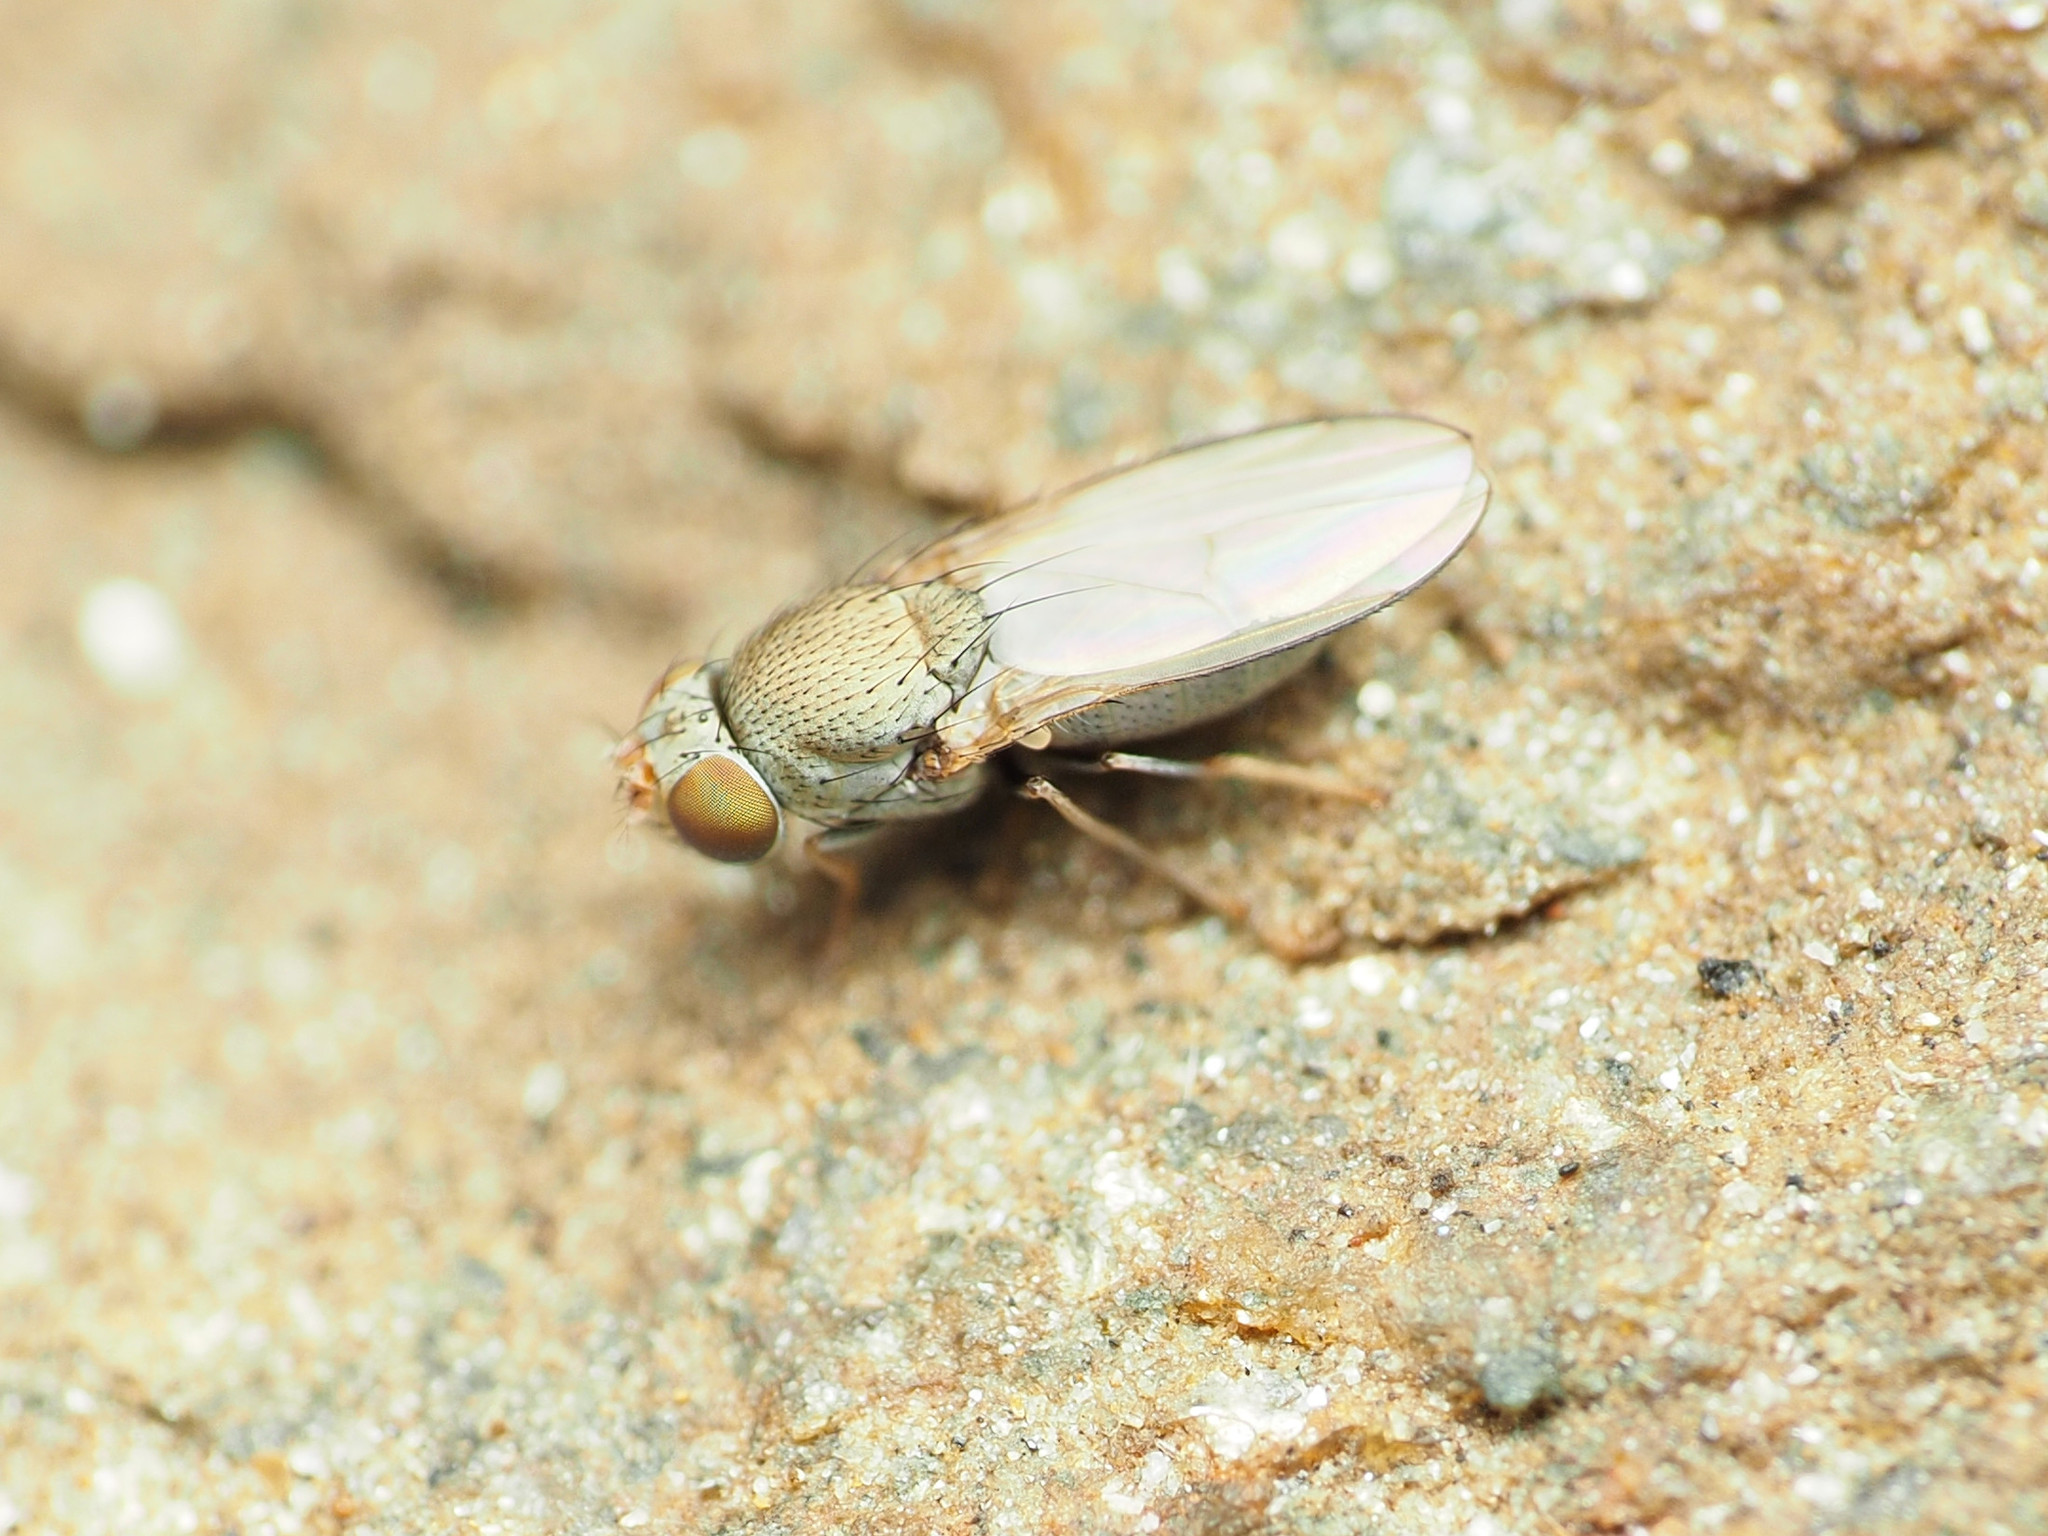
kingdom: Animalia
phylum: Arthropoda
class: Insecta
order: Diptera
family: Ephydridae
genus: Diclasiopa
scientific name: Diclasiopa lacteipennis
